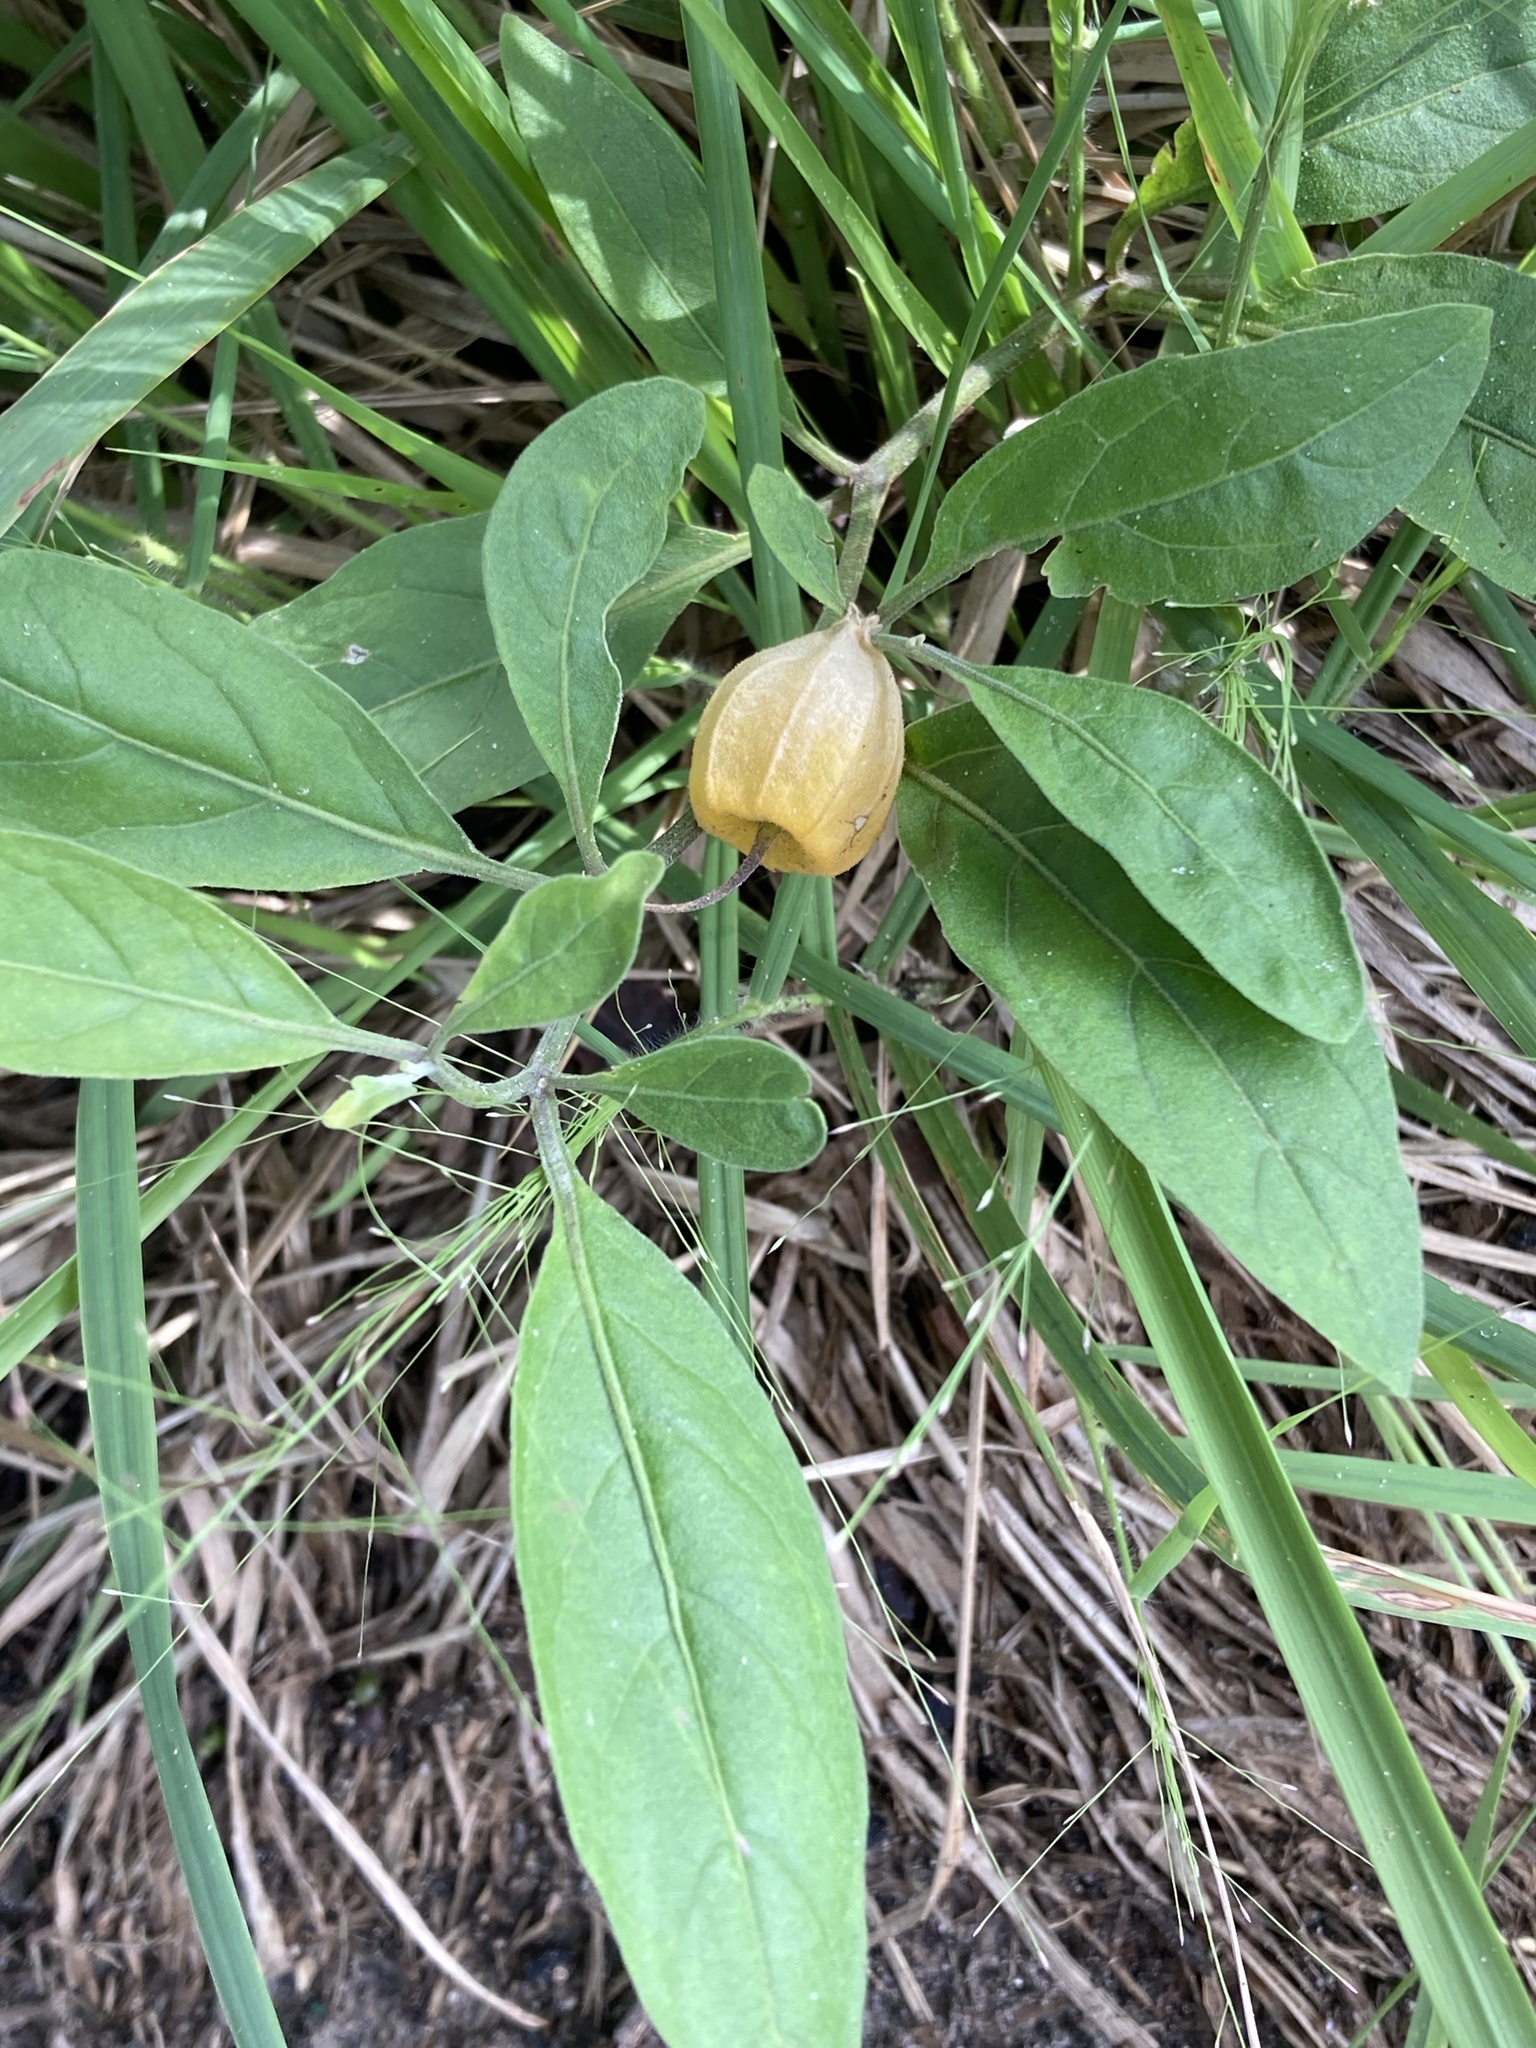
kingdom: Plantae
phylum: Tracheophyta
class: Magnoliopsida
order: Solanales
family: Solanaceae
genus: Physalis
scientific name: Physalis elliottii
